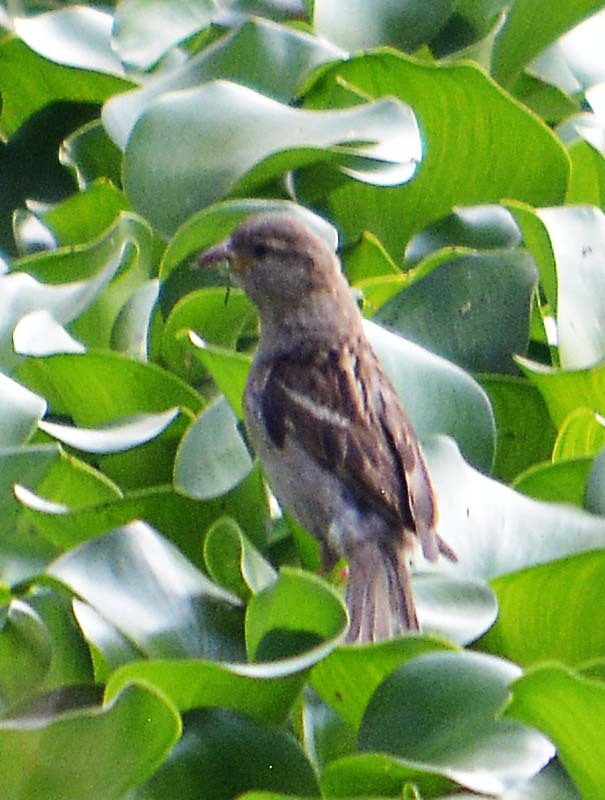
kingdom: Animalia
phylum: Chordata
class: Aves
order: Passeriformes
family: Passeridae
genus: Passer
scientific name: Passer domesticus
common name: House sparrow
